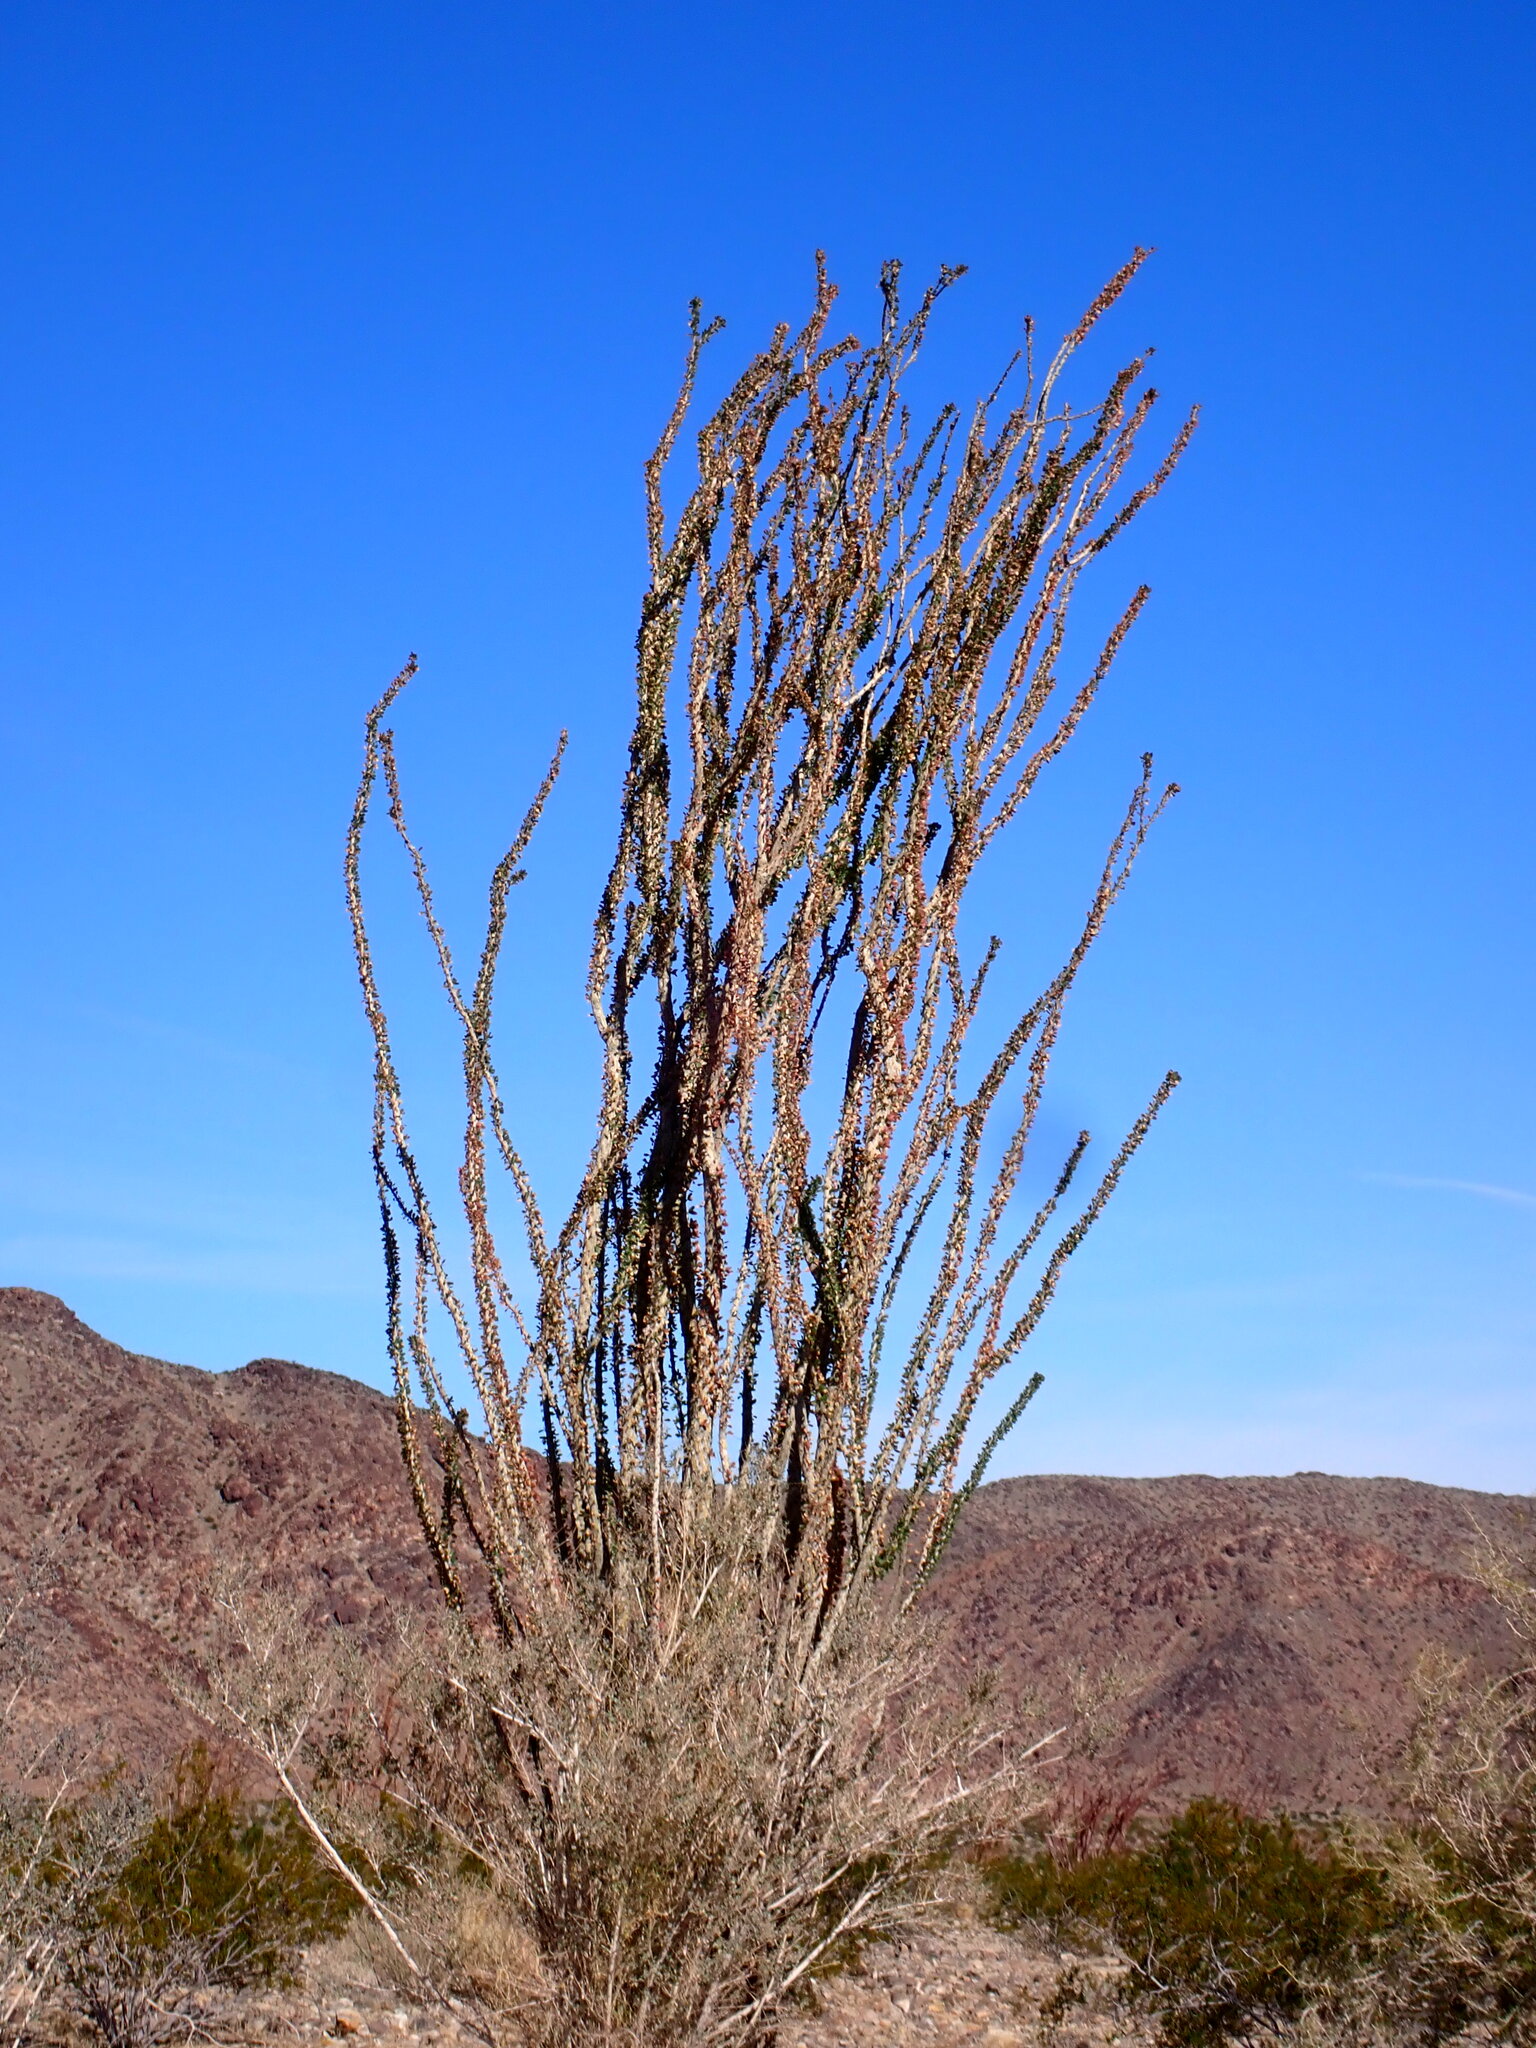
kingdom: Plantae
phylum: Tracheophyta
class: Magnoliopsida
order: Ericales
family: Fouquieriaceae
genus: Fouquieria
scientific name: Fouquieria splendens
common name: Vine-cactus
